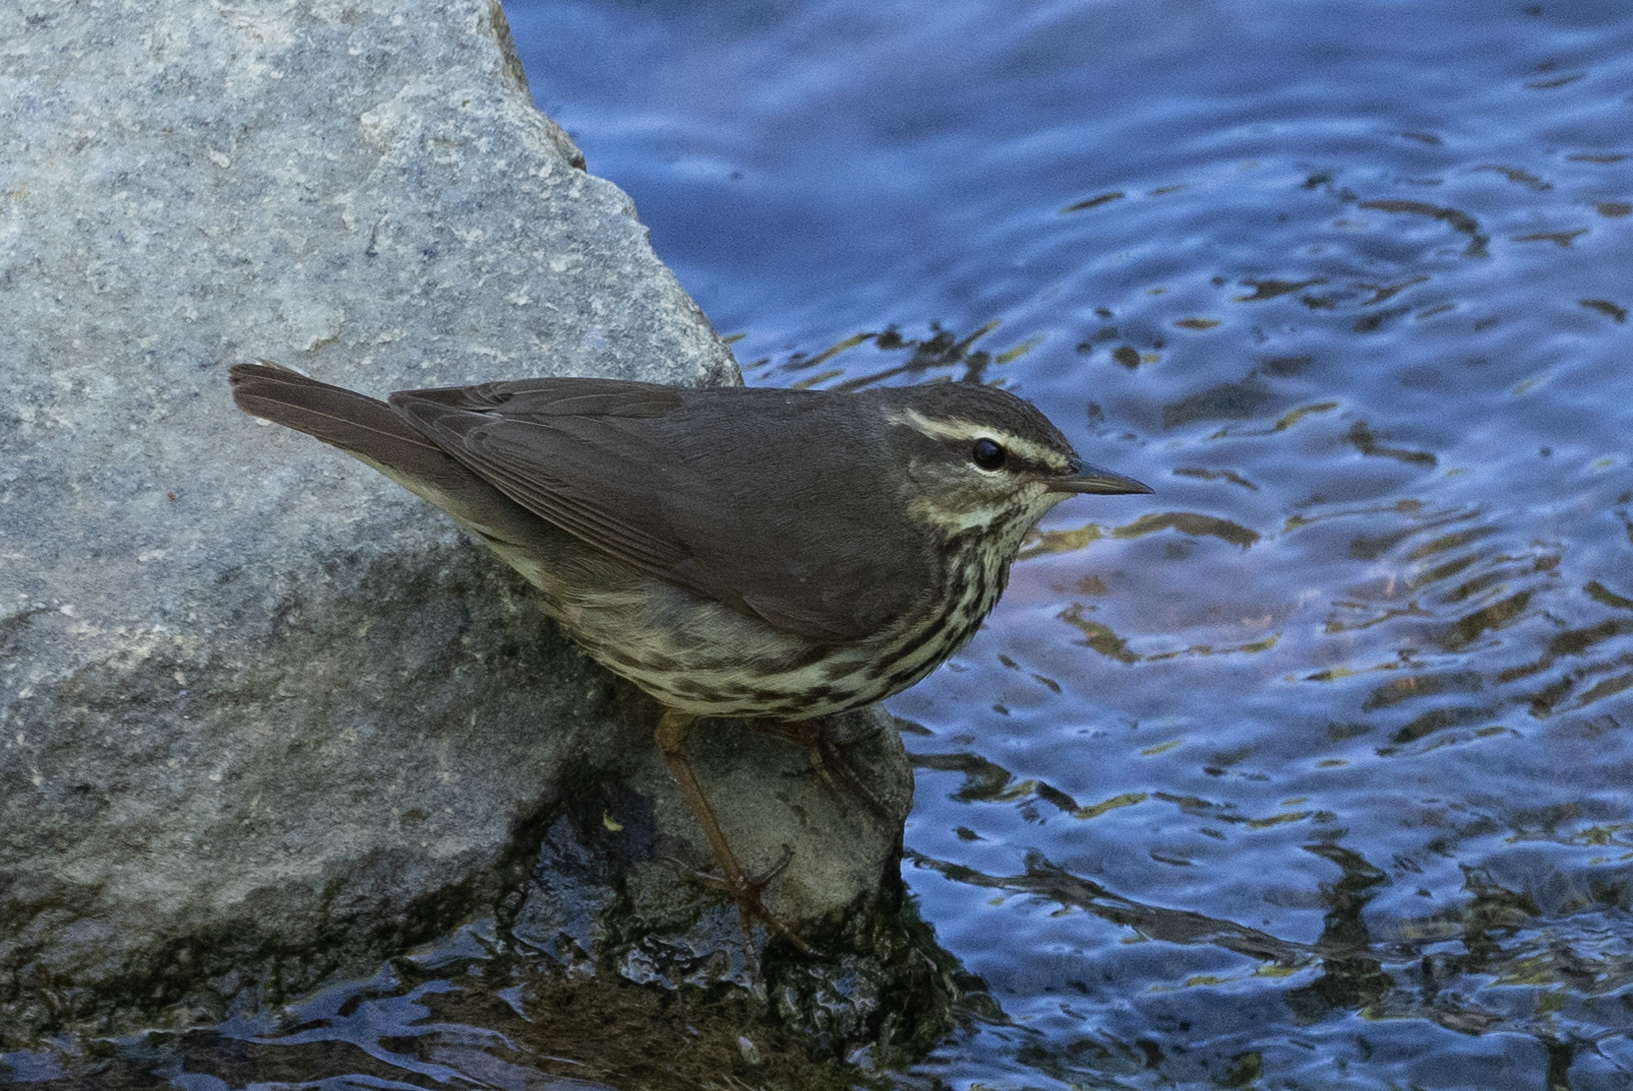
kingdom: Animalia
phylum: Chordata
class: Aves
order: Passeriformes
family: Parulidae
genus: Parkesia
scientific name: Parkesia noveboracensis
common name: Northern waterthrush
